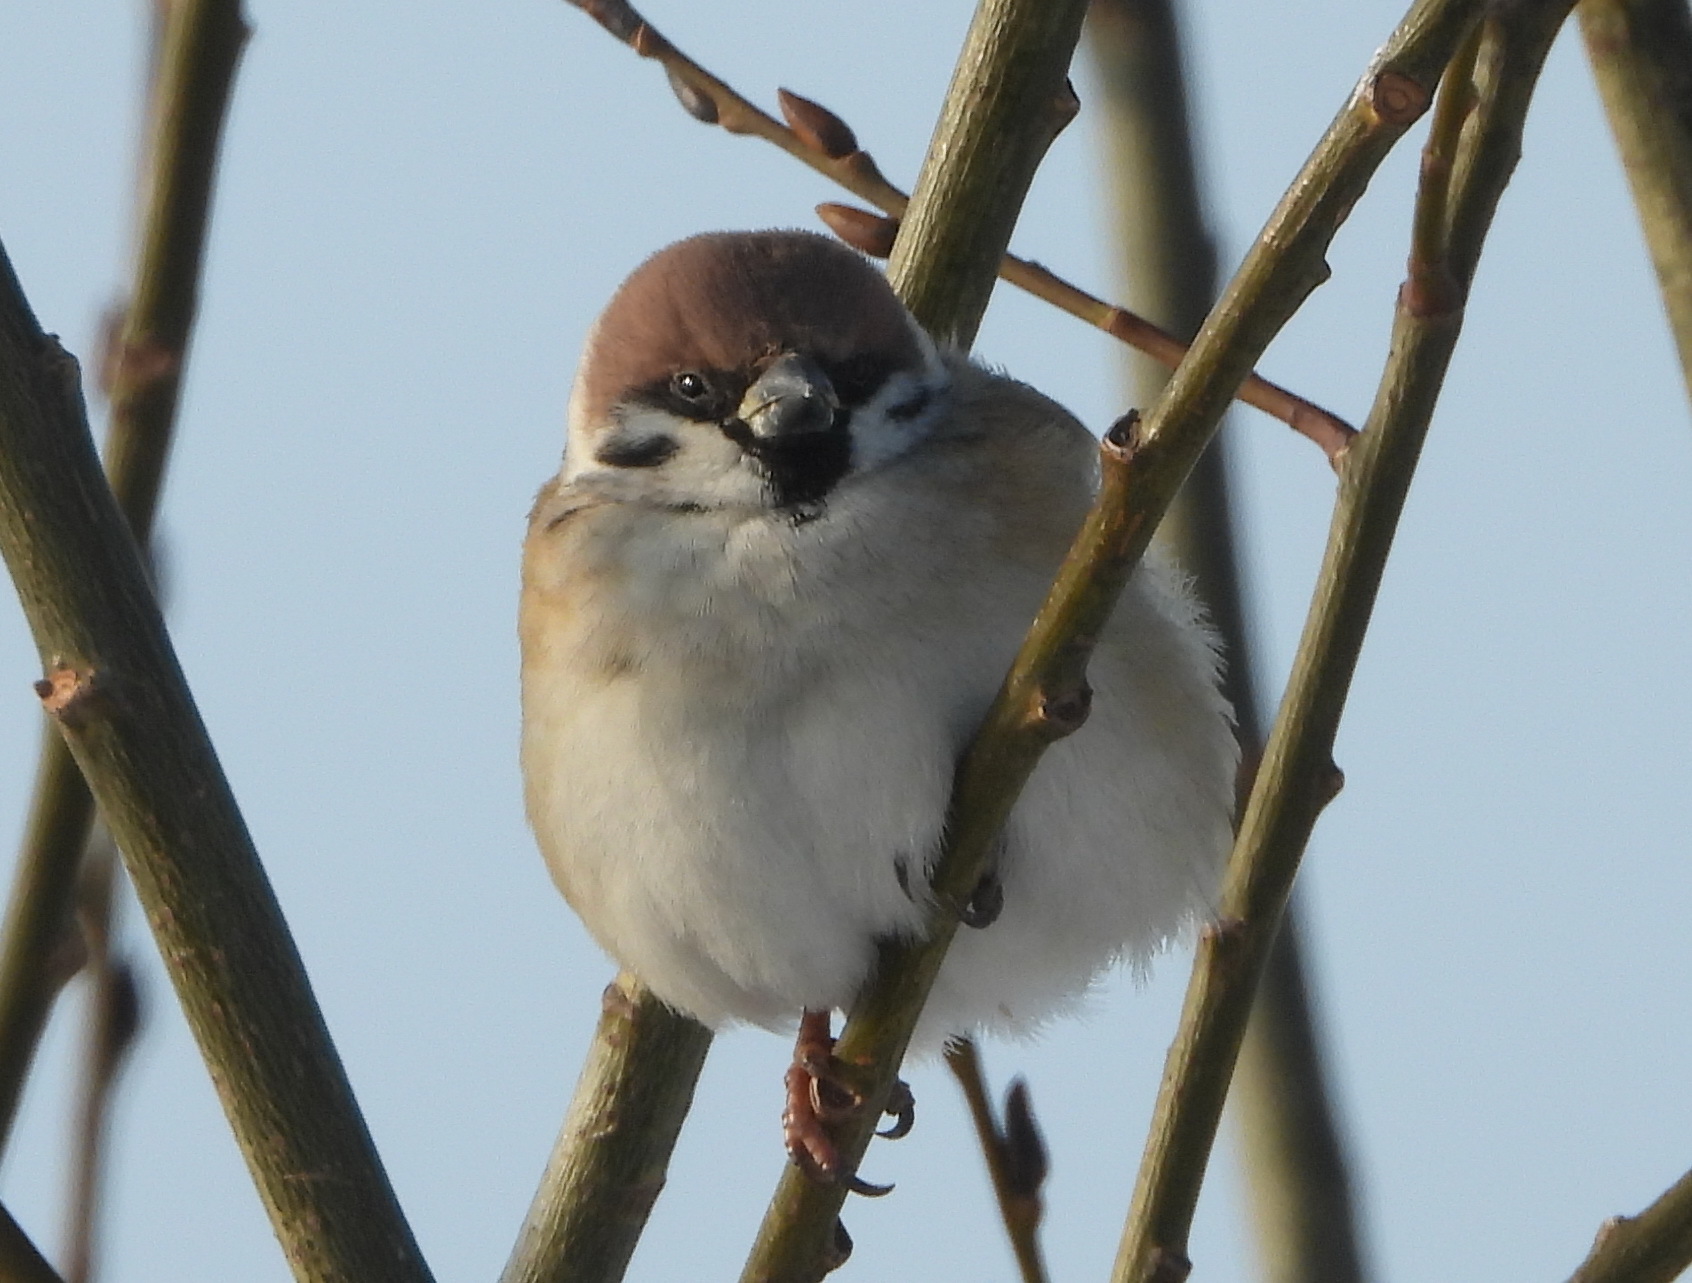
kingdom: Animalia
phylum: Chordata
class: Aves
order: Passeriformes
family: Passeridae
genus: Passer
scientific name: Passer montanus
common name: Eurasian tree sparrow
